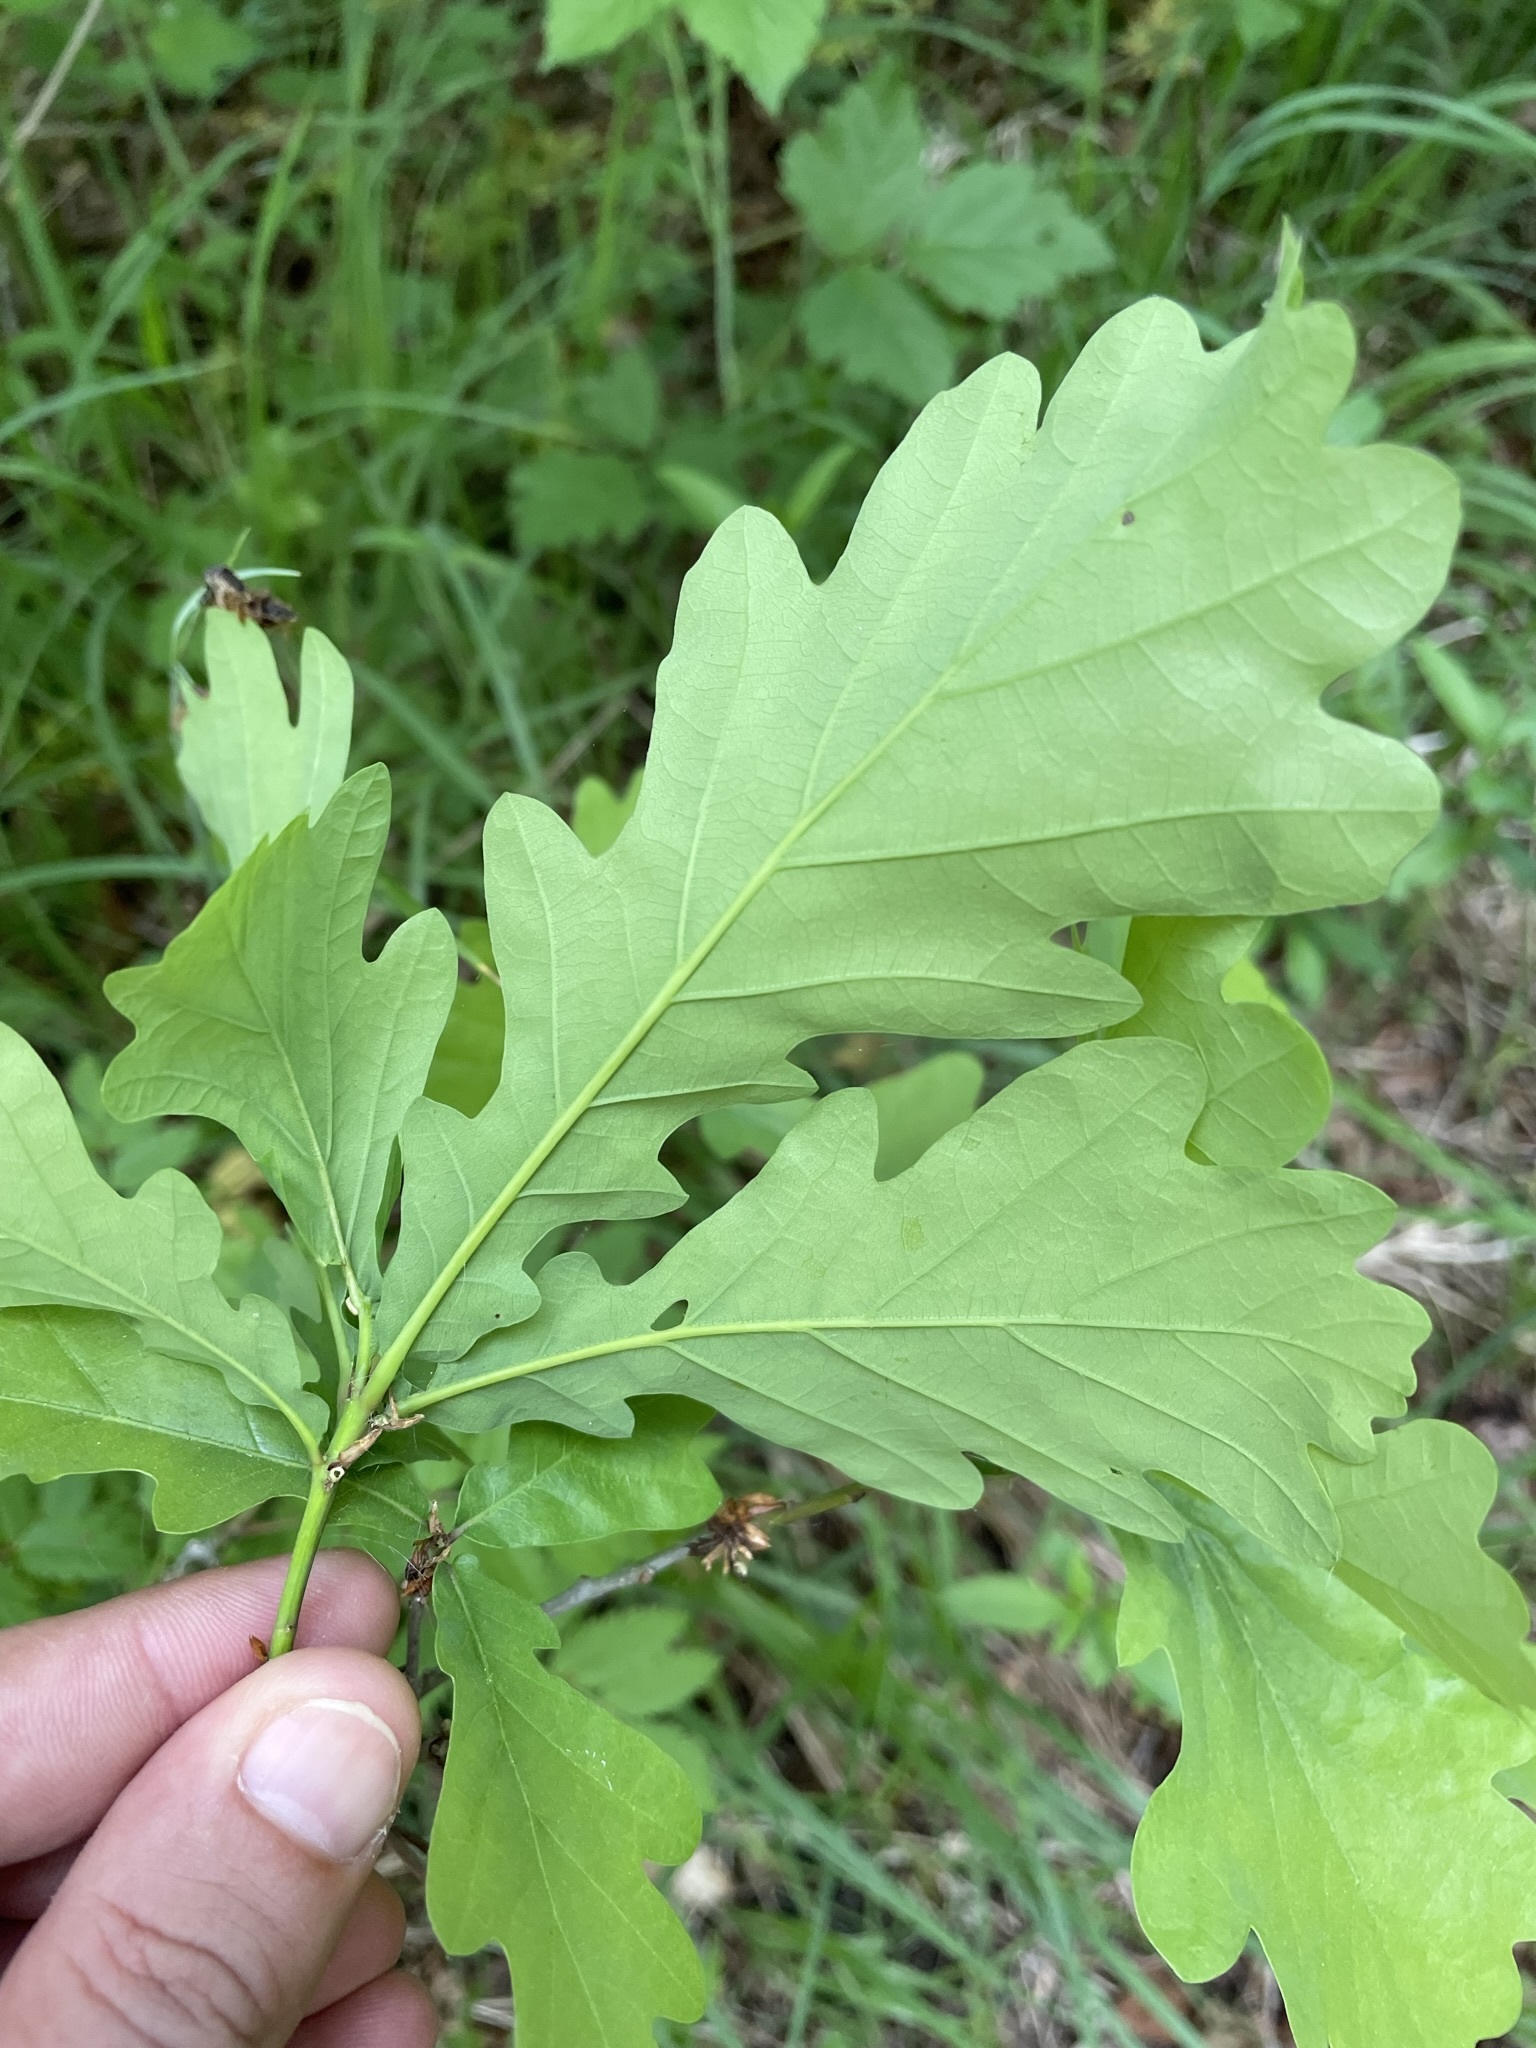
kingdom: Plantae
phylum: Tracheophyta
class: Magnoliopsida
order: Fagales
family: Fagaceae
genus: Quercus
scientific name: Quercus robur
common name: Pedunculate oak
